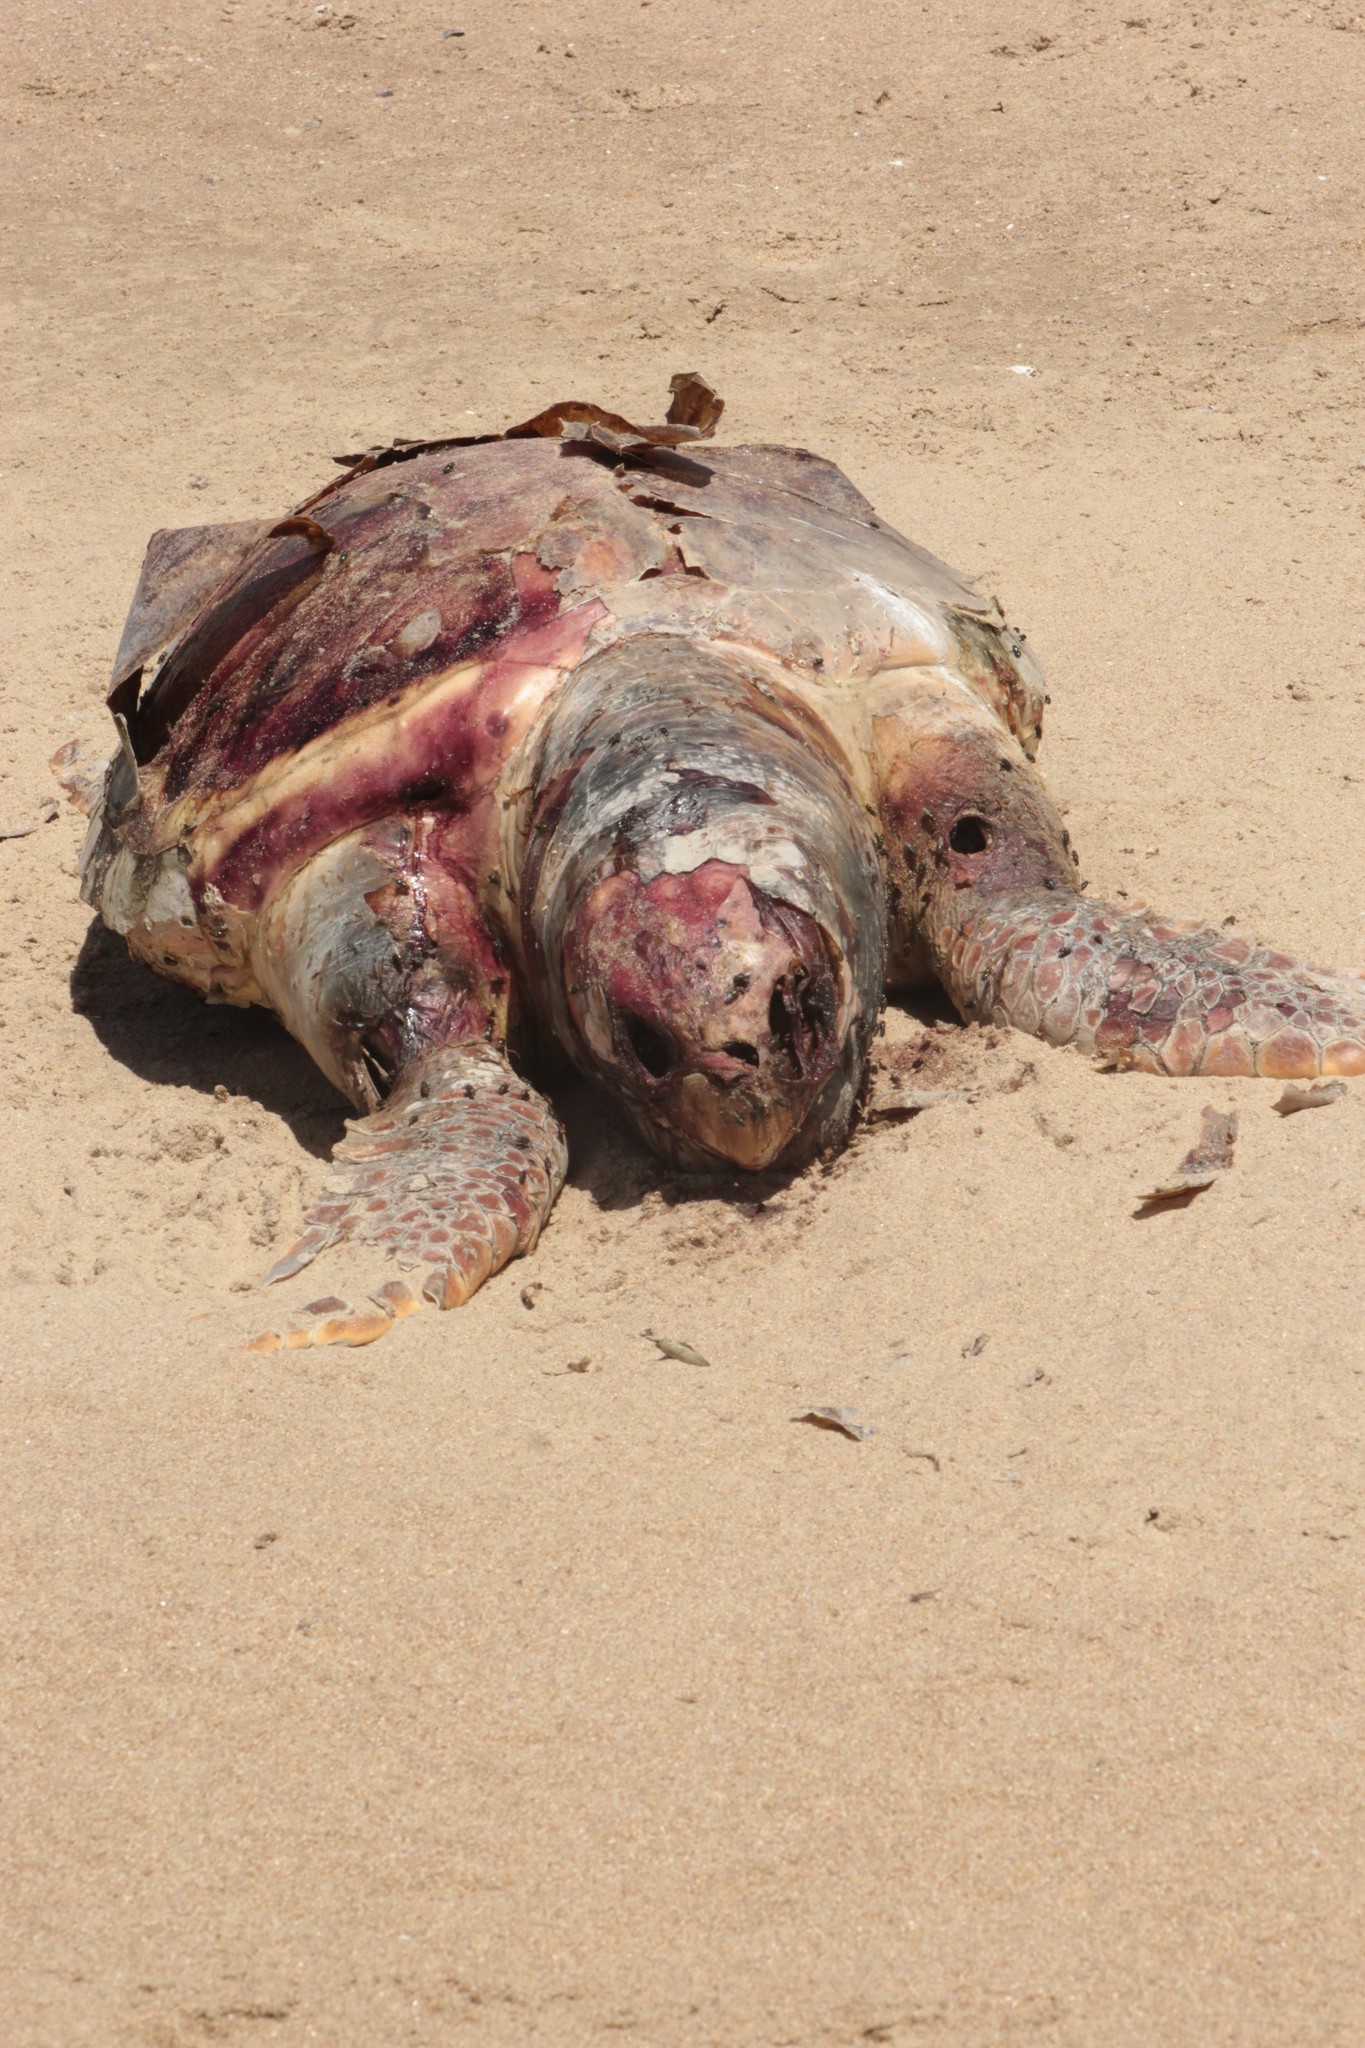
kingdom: Animalia
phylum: Chordata
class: Testudines
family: Cheloniidae
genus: Caretta
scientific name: Caretta caretta
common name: Loggerhead sea turtle
